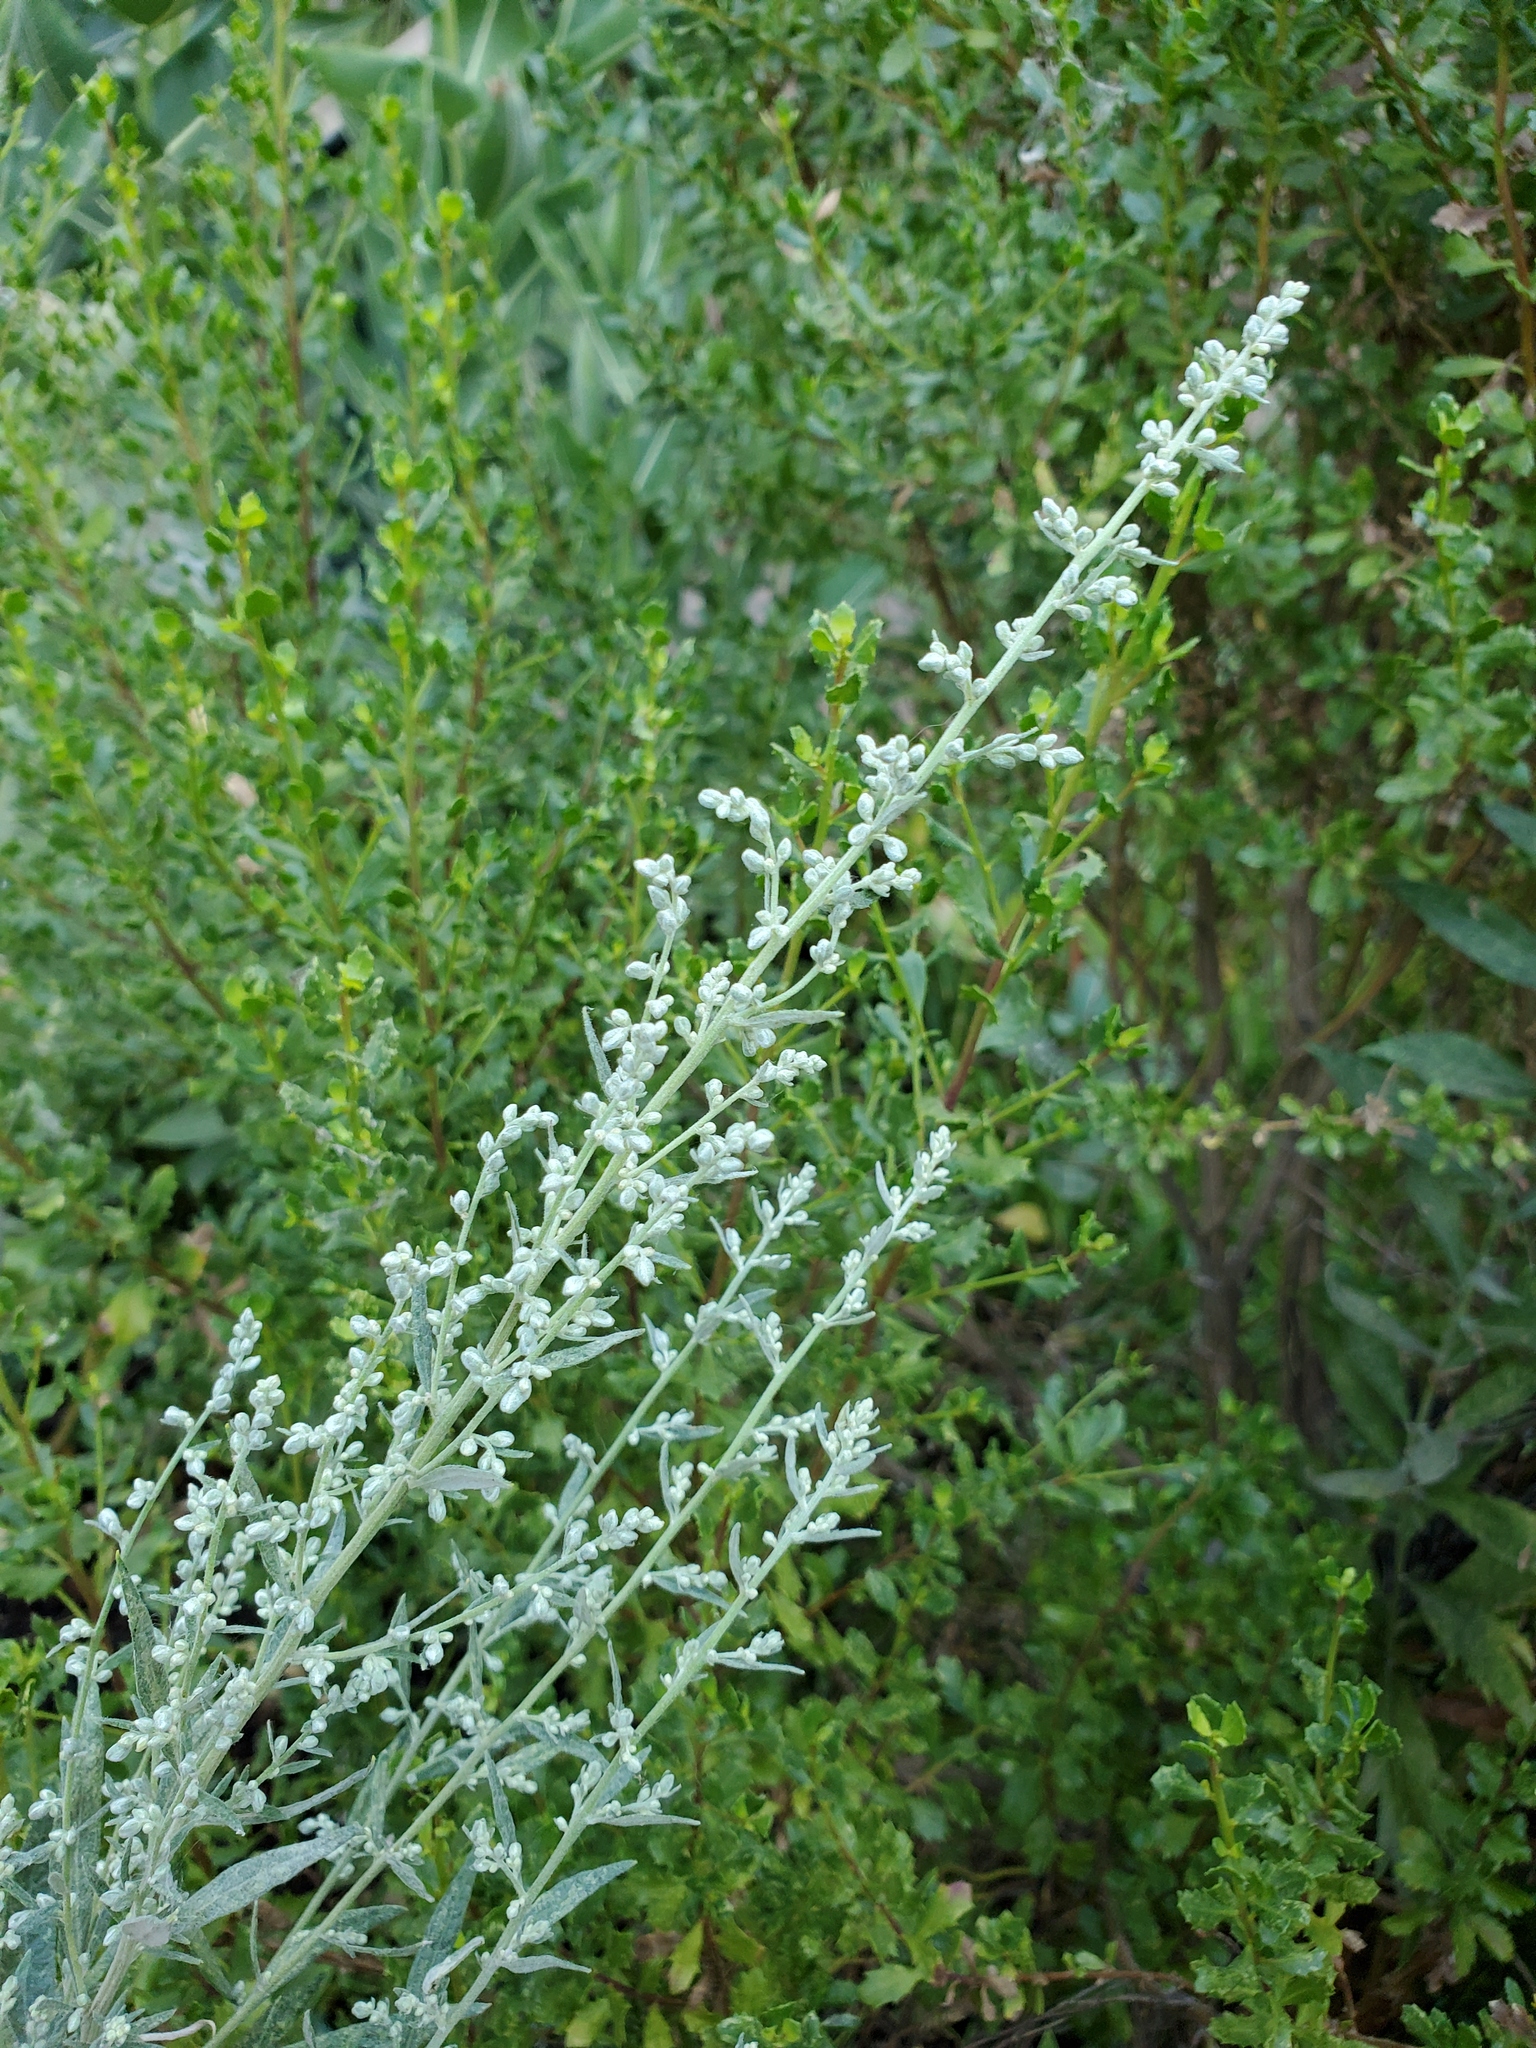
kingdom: Plantae
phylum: Tracheophyta
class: Magnoliopsida
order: Asterales
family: Asteraceae
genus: Artemisia
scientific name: Artemisia douglasiana
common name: Northwest mugwort
